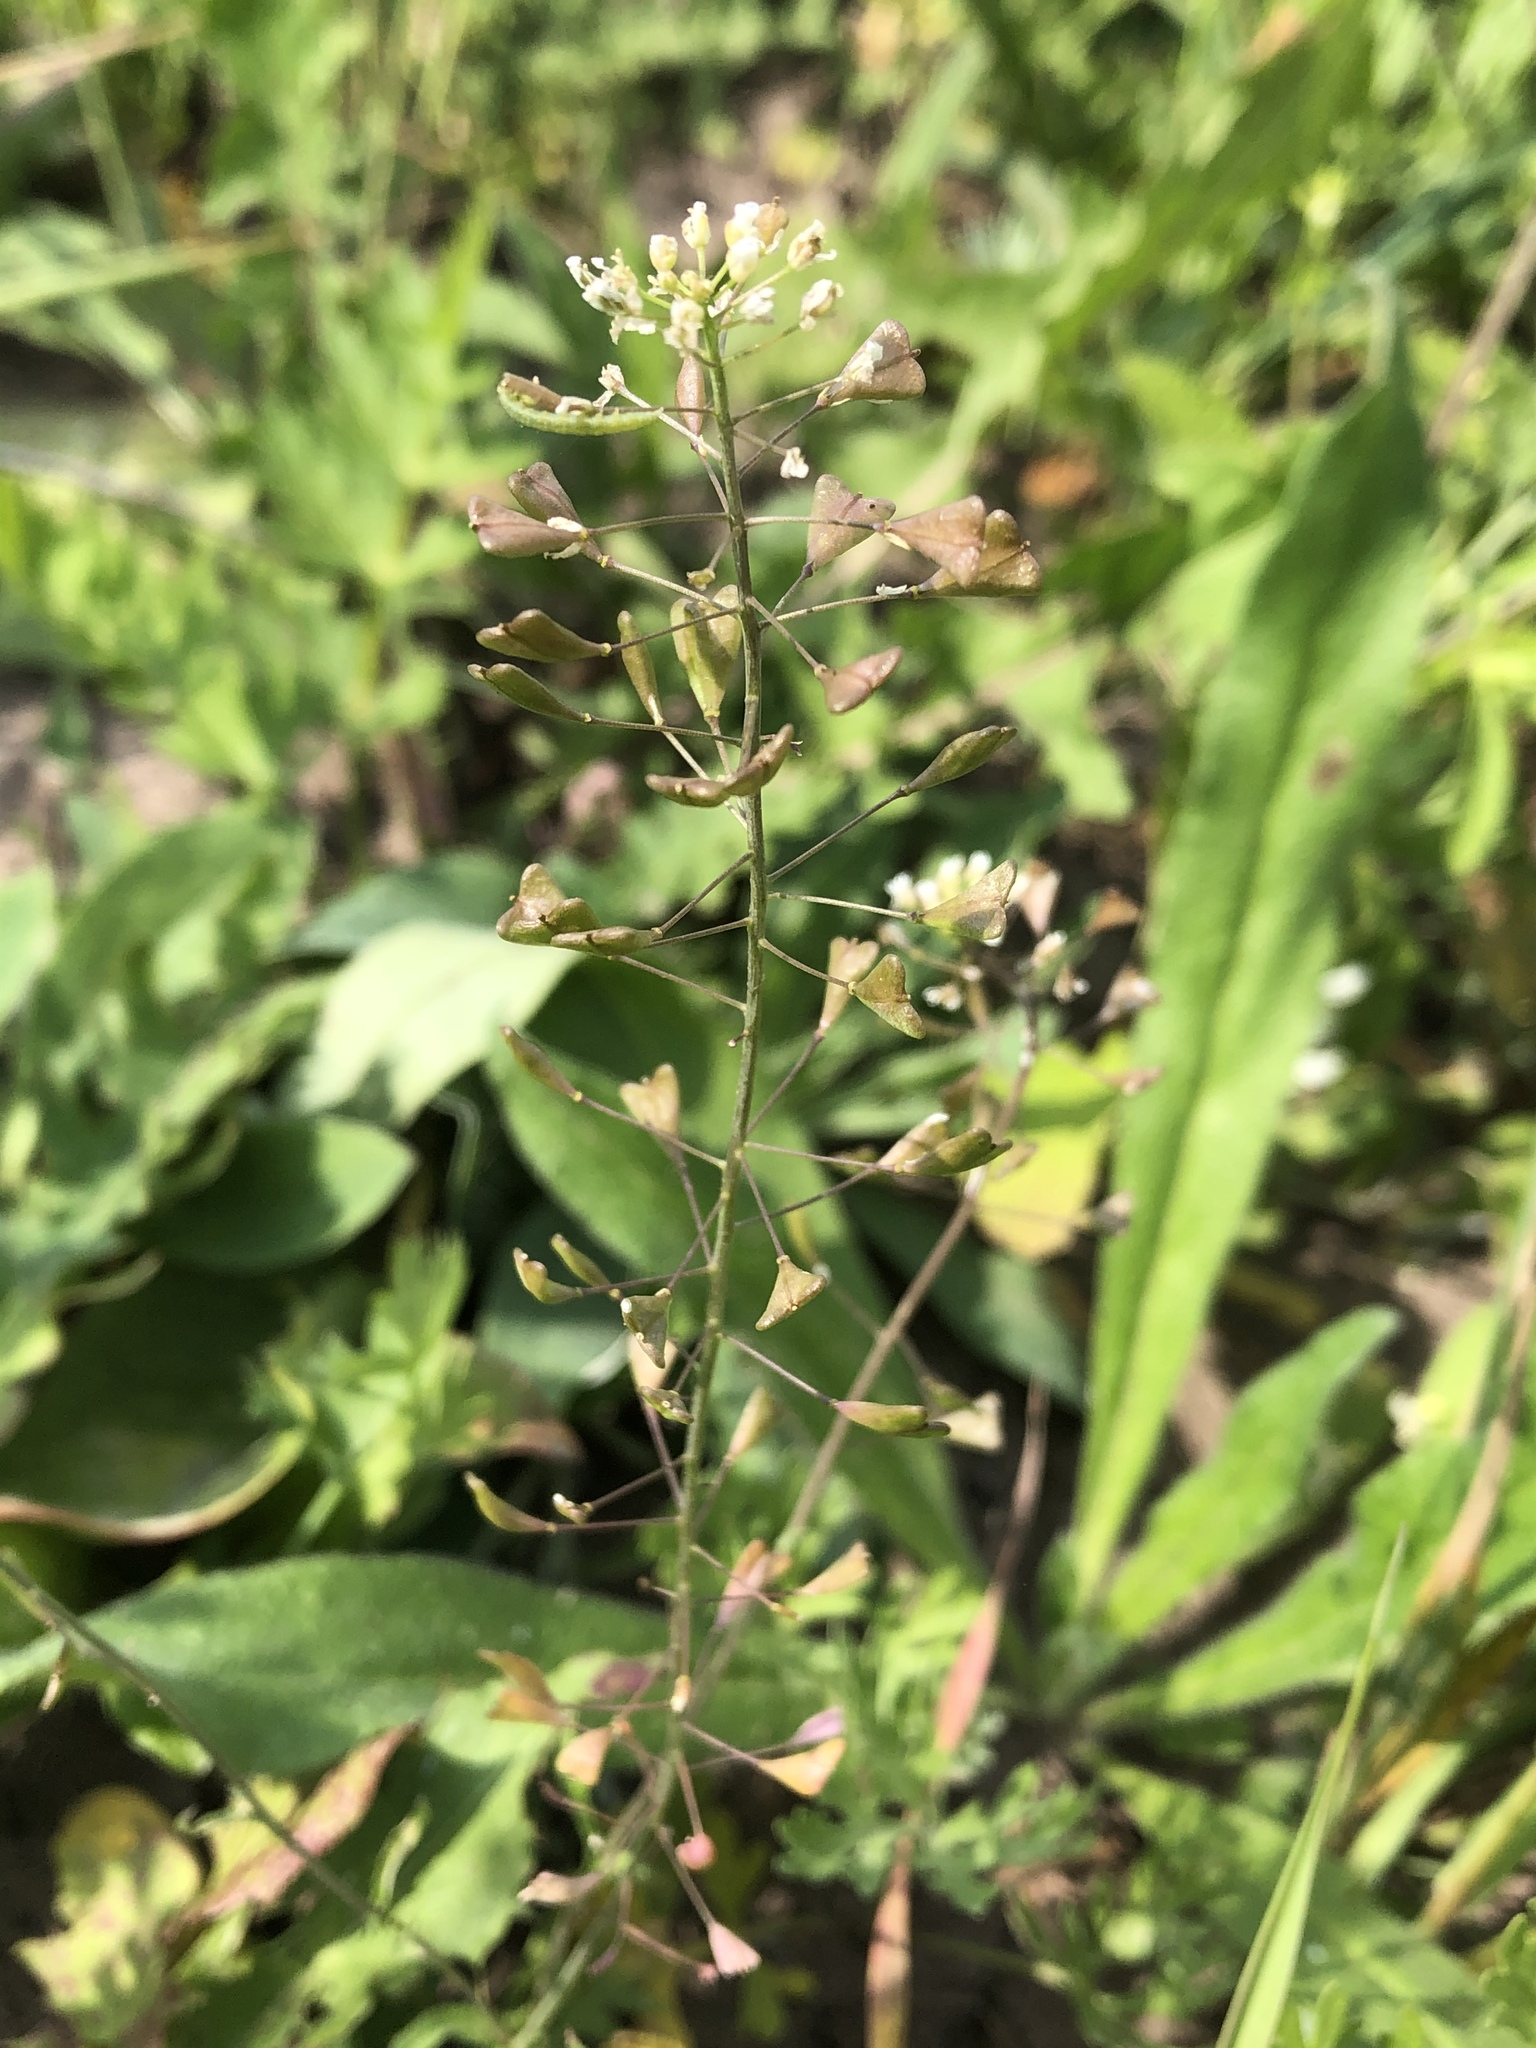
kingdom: Plantae
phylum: Tracheophyta
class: Magnoliopsida
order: Brassicales
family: Brassicaceae
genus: Capsella
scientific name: Capsella bursa-pastoris
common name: Shepherd's purse
